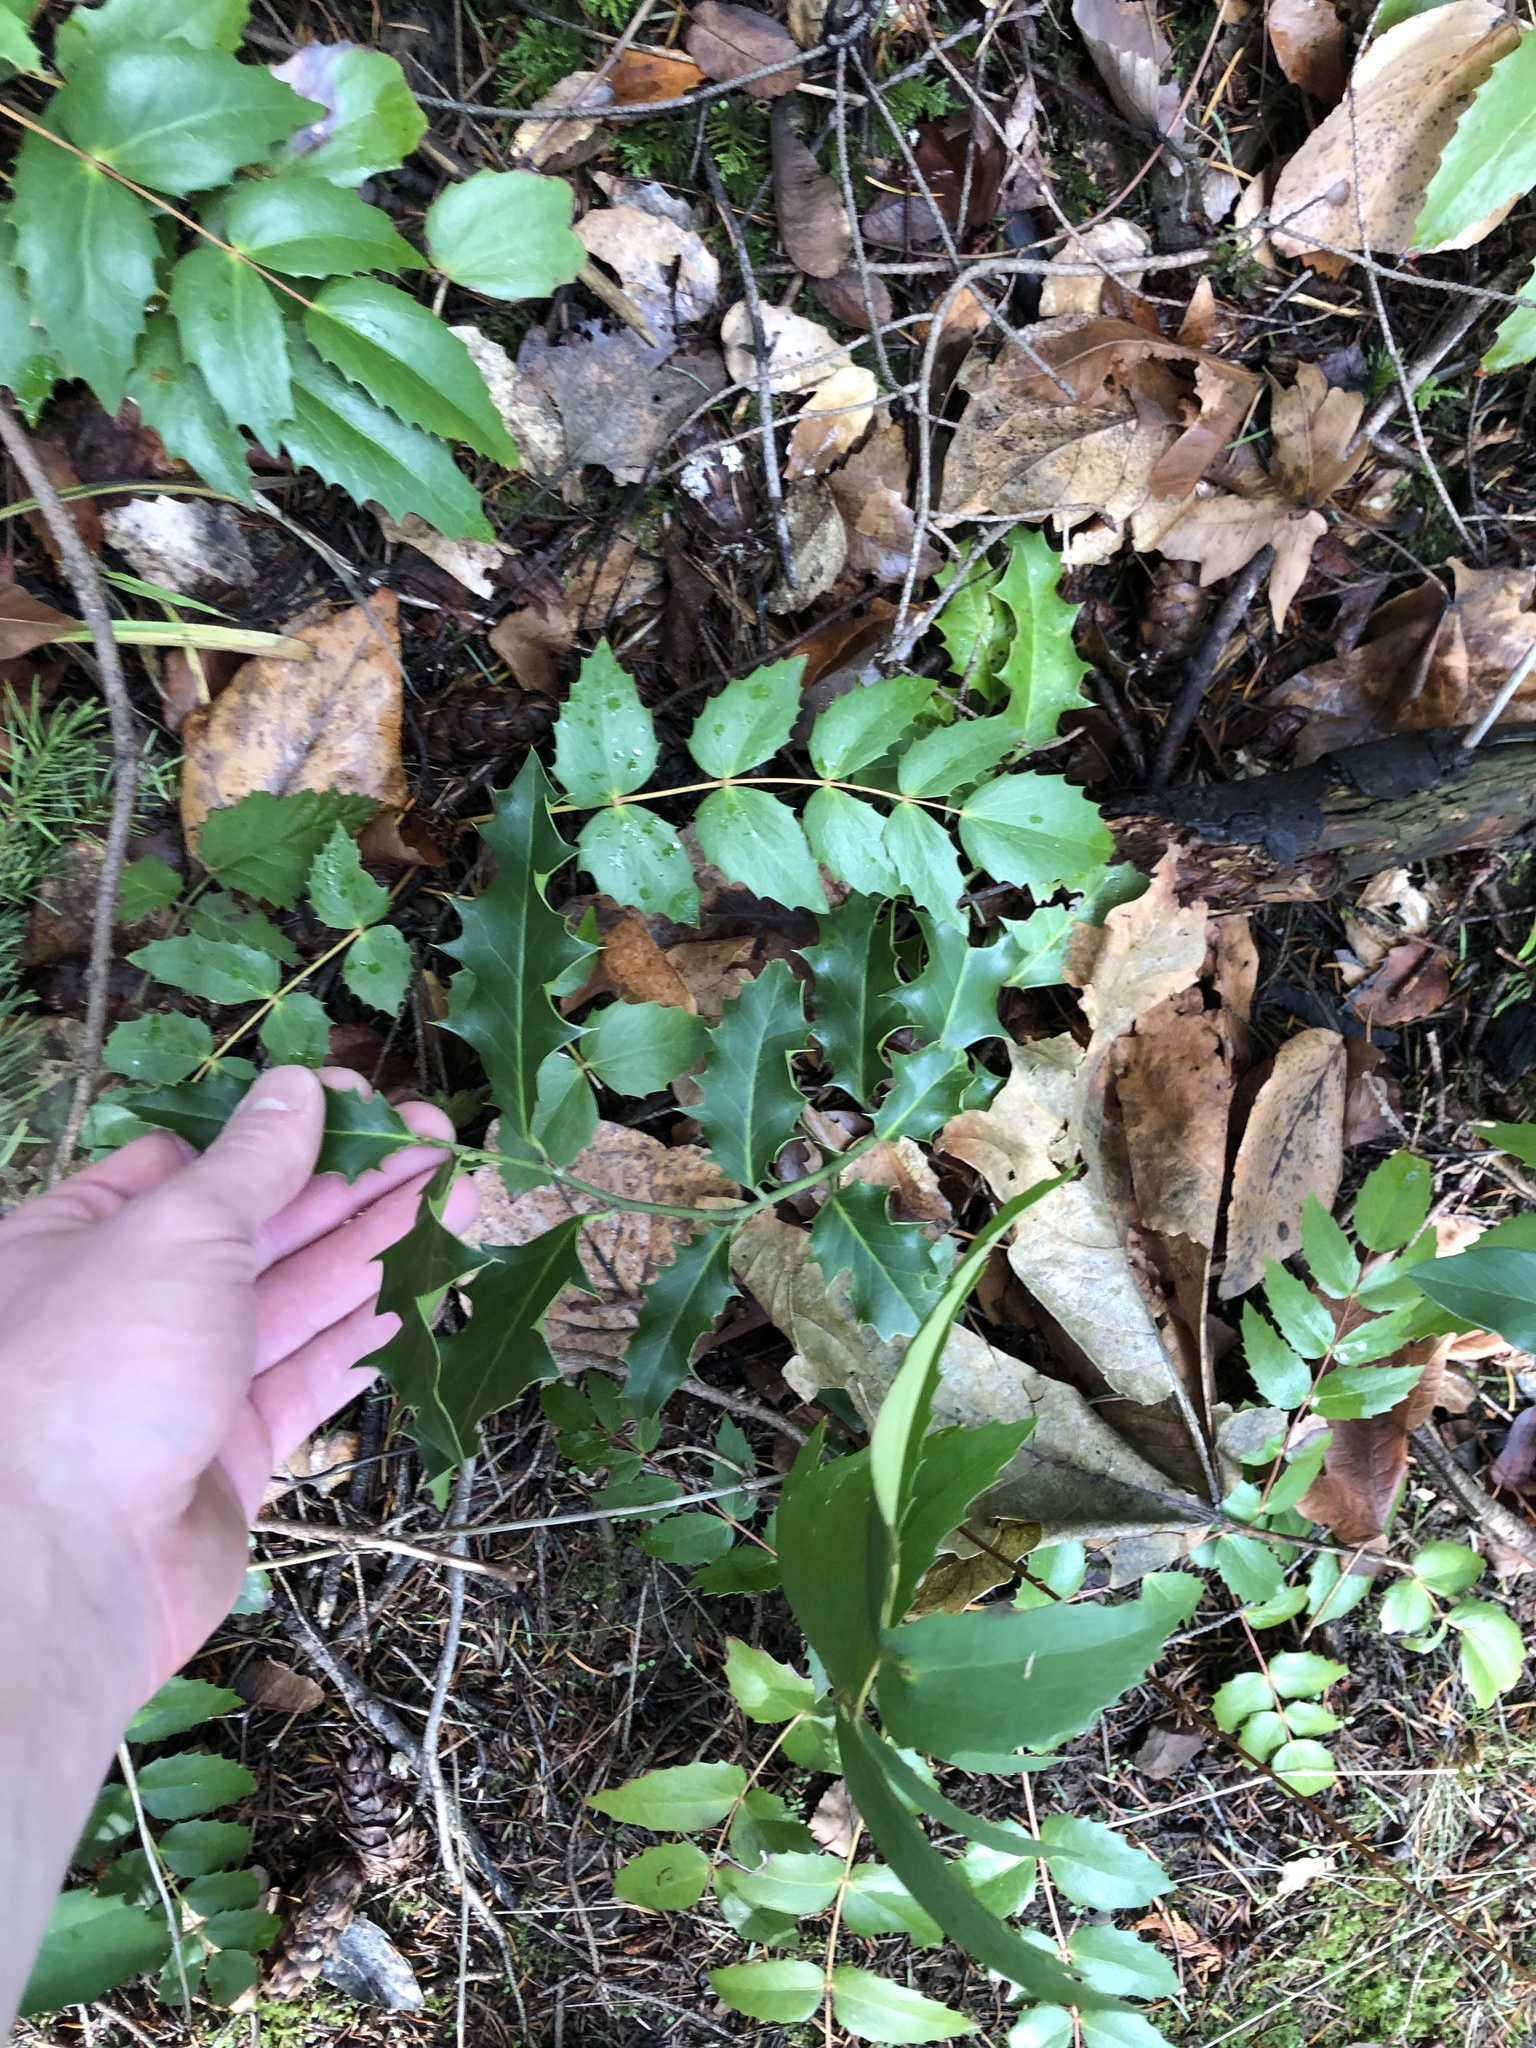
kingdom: Plantae
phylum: Tracheophyta
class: Magnoliopsida
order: Aquifoliales
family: Aquifoliaceae
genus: Ilex
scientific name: Ilex aquifolium
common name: English holly
